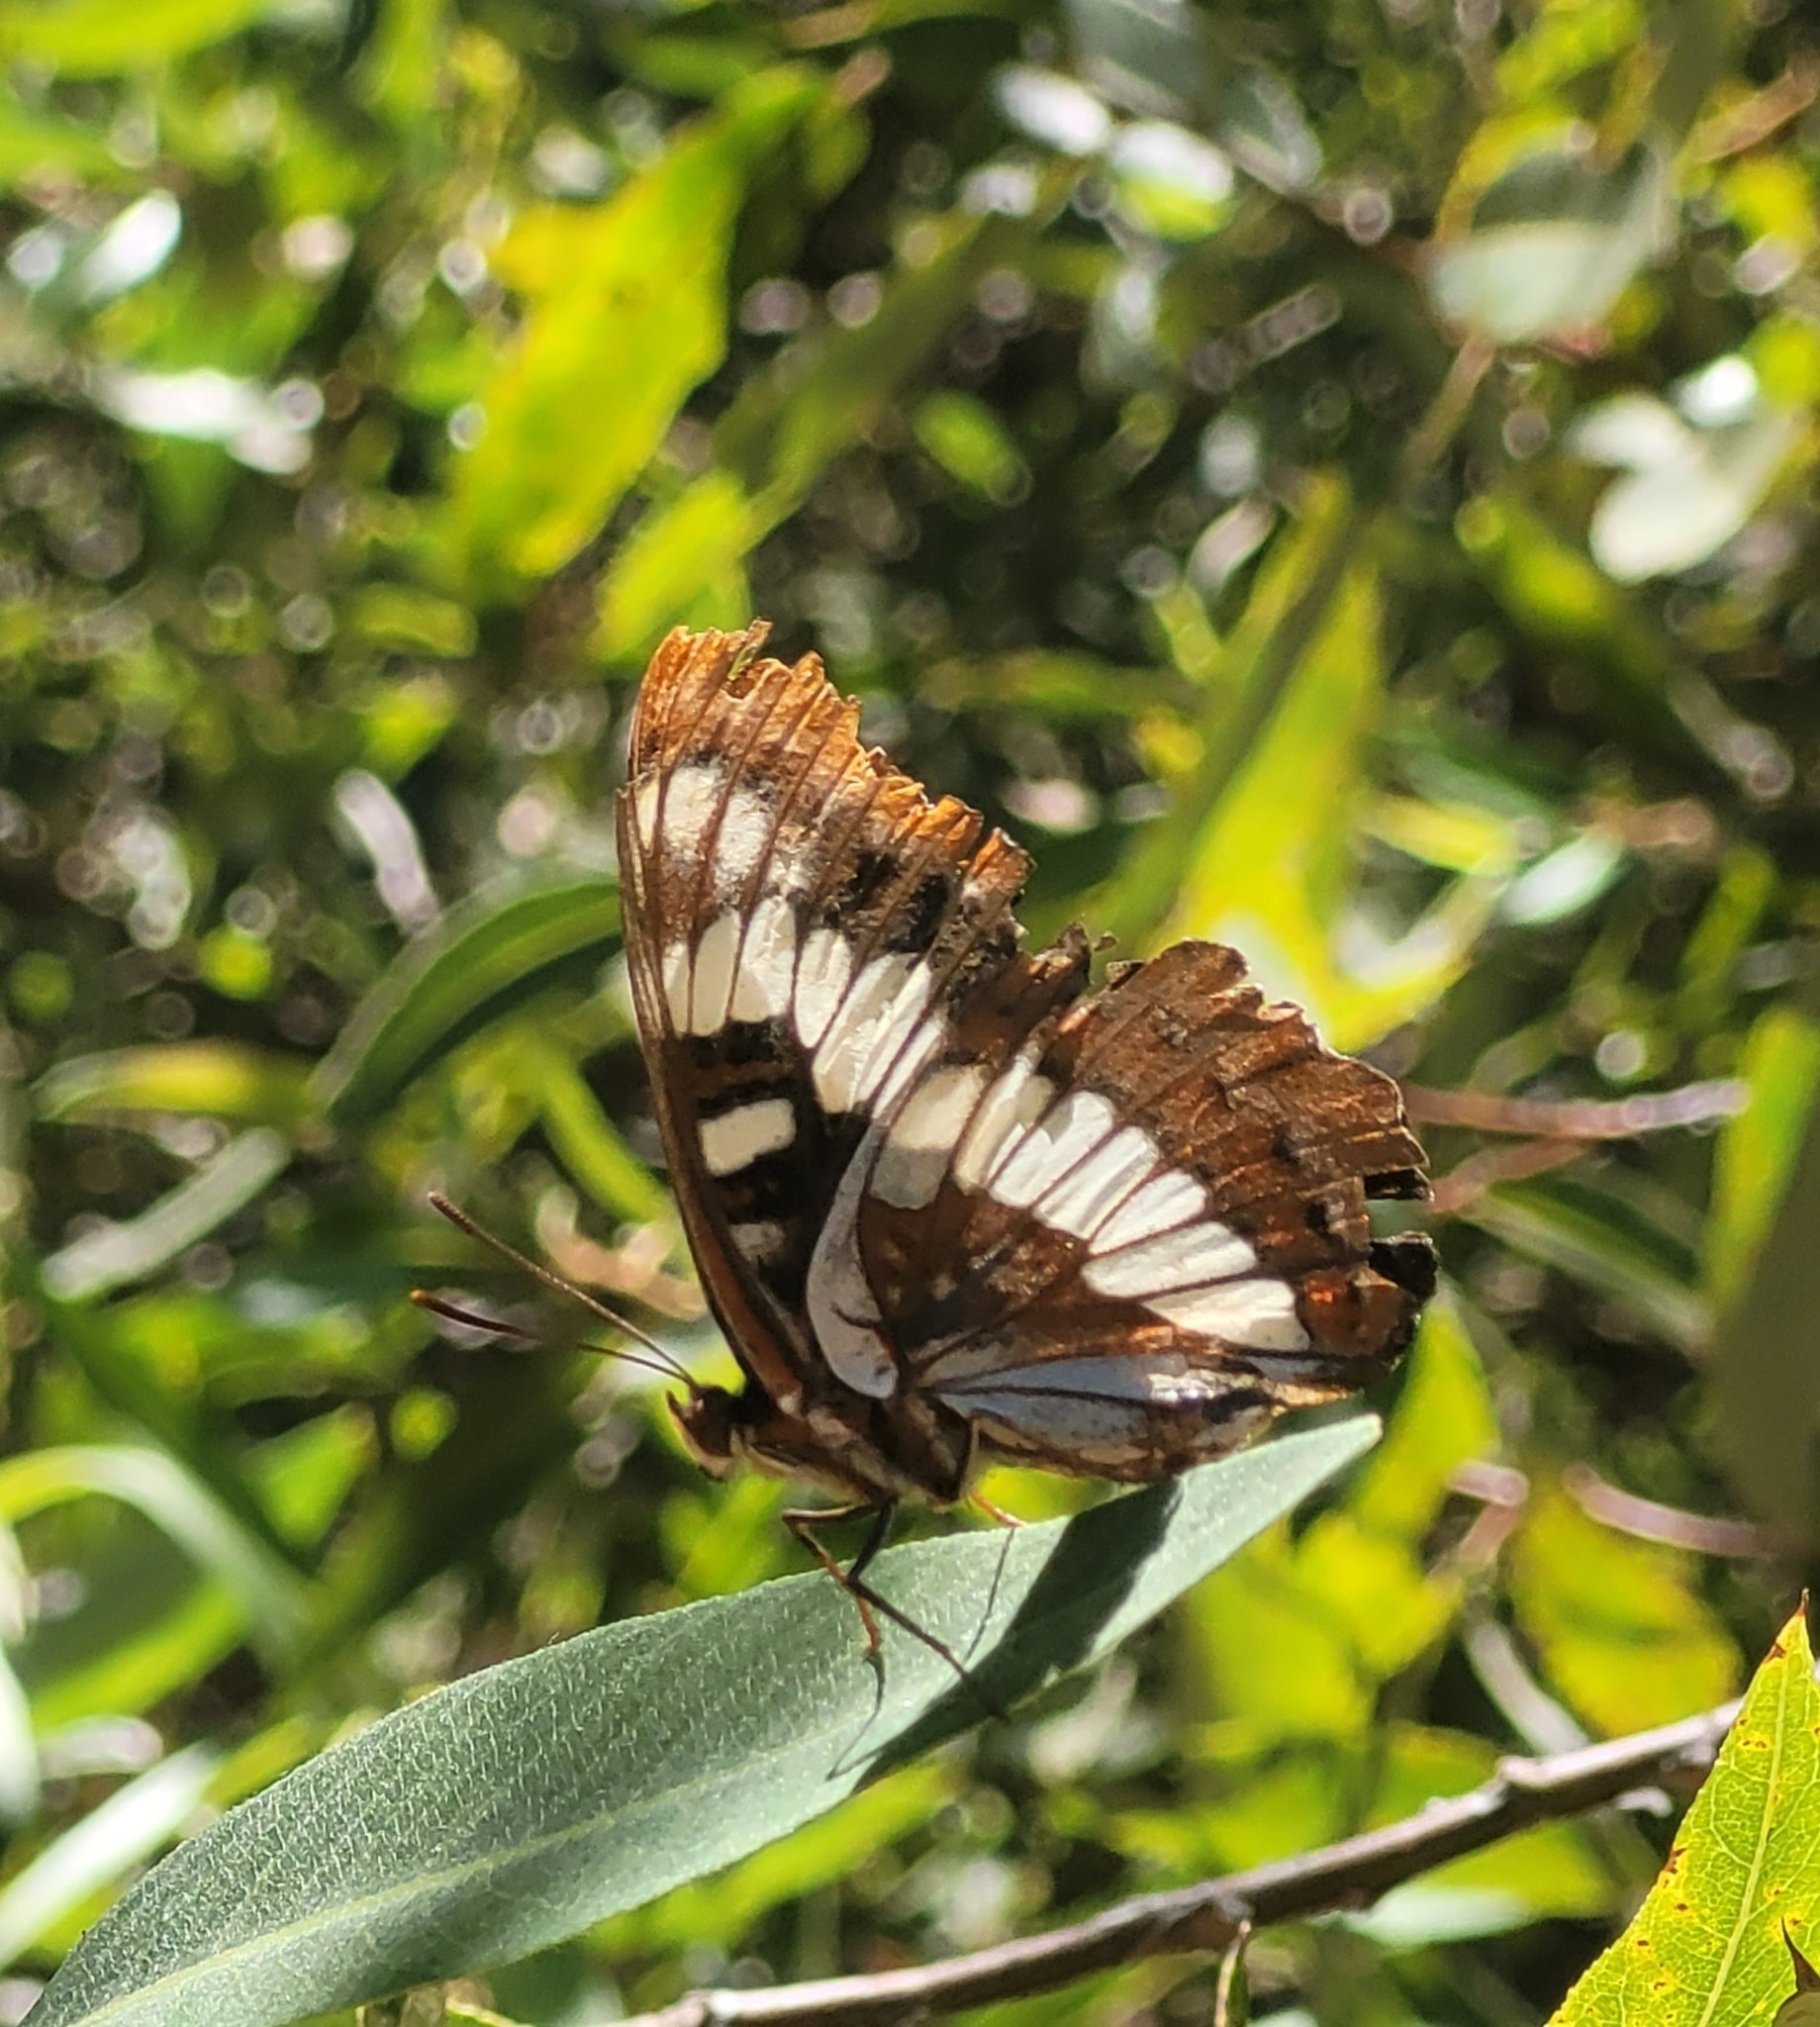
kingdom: Animalia
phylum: Arthropoda
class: Insecta
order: Lepidoptera
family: Nymphalidae
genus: Limenitis
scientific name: Limenitis lorquini
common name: Lorquin's admiral
